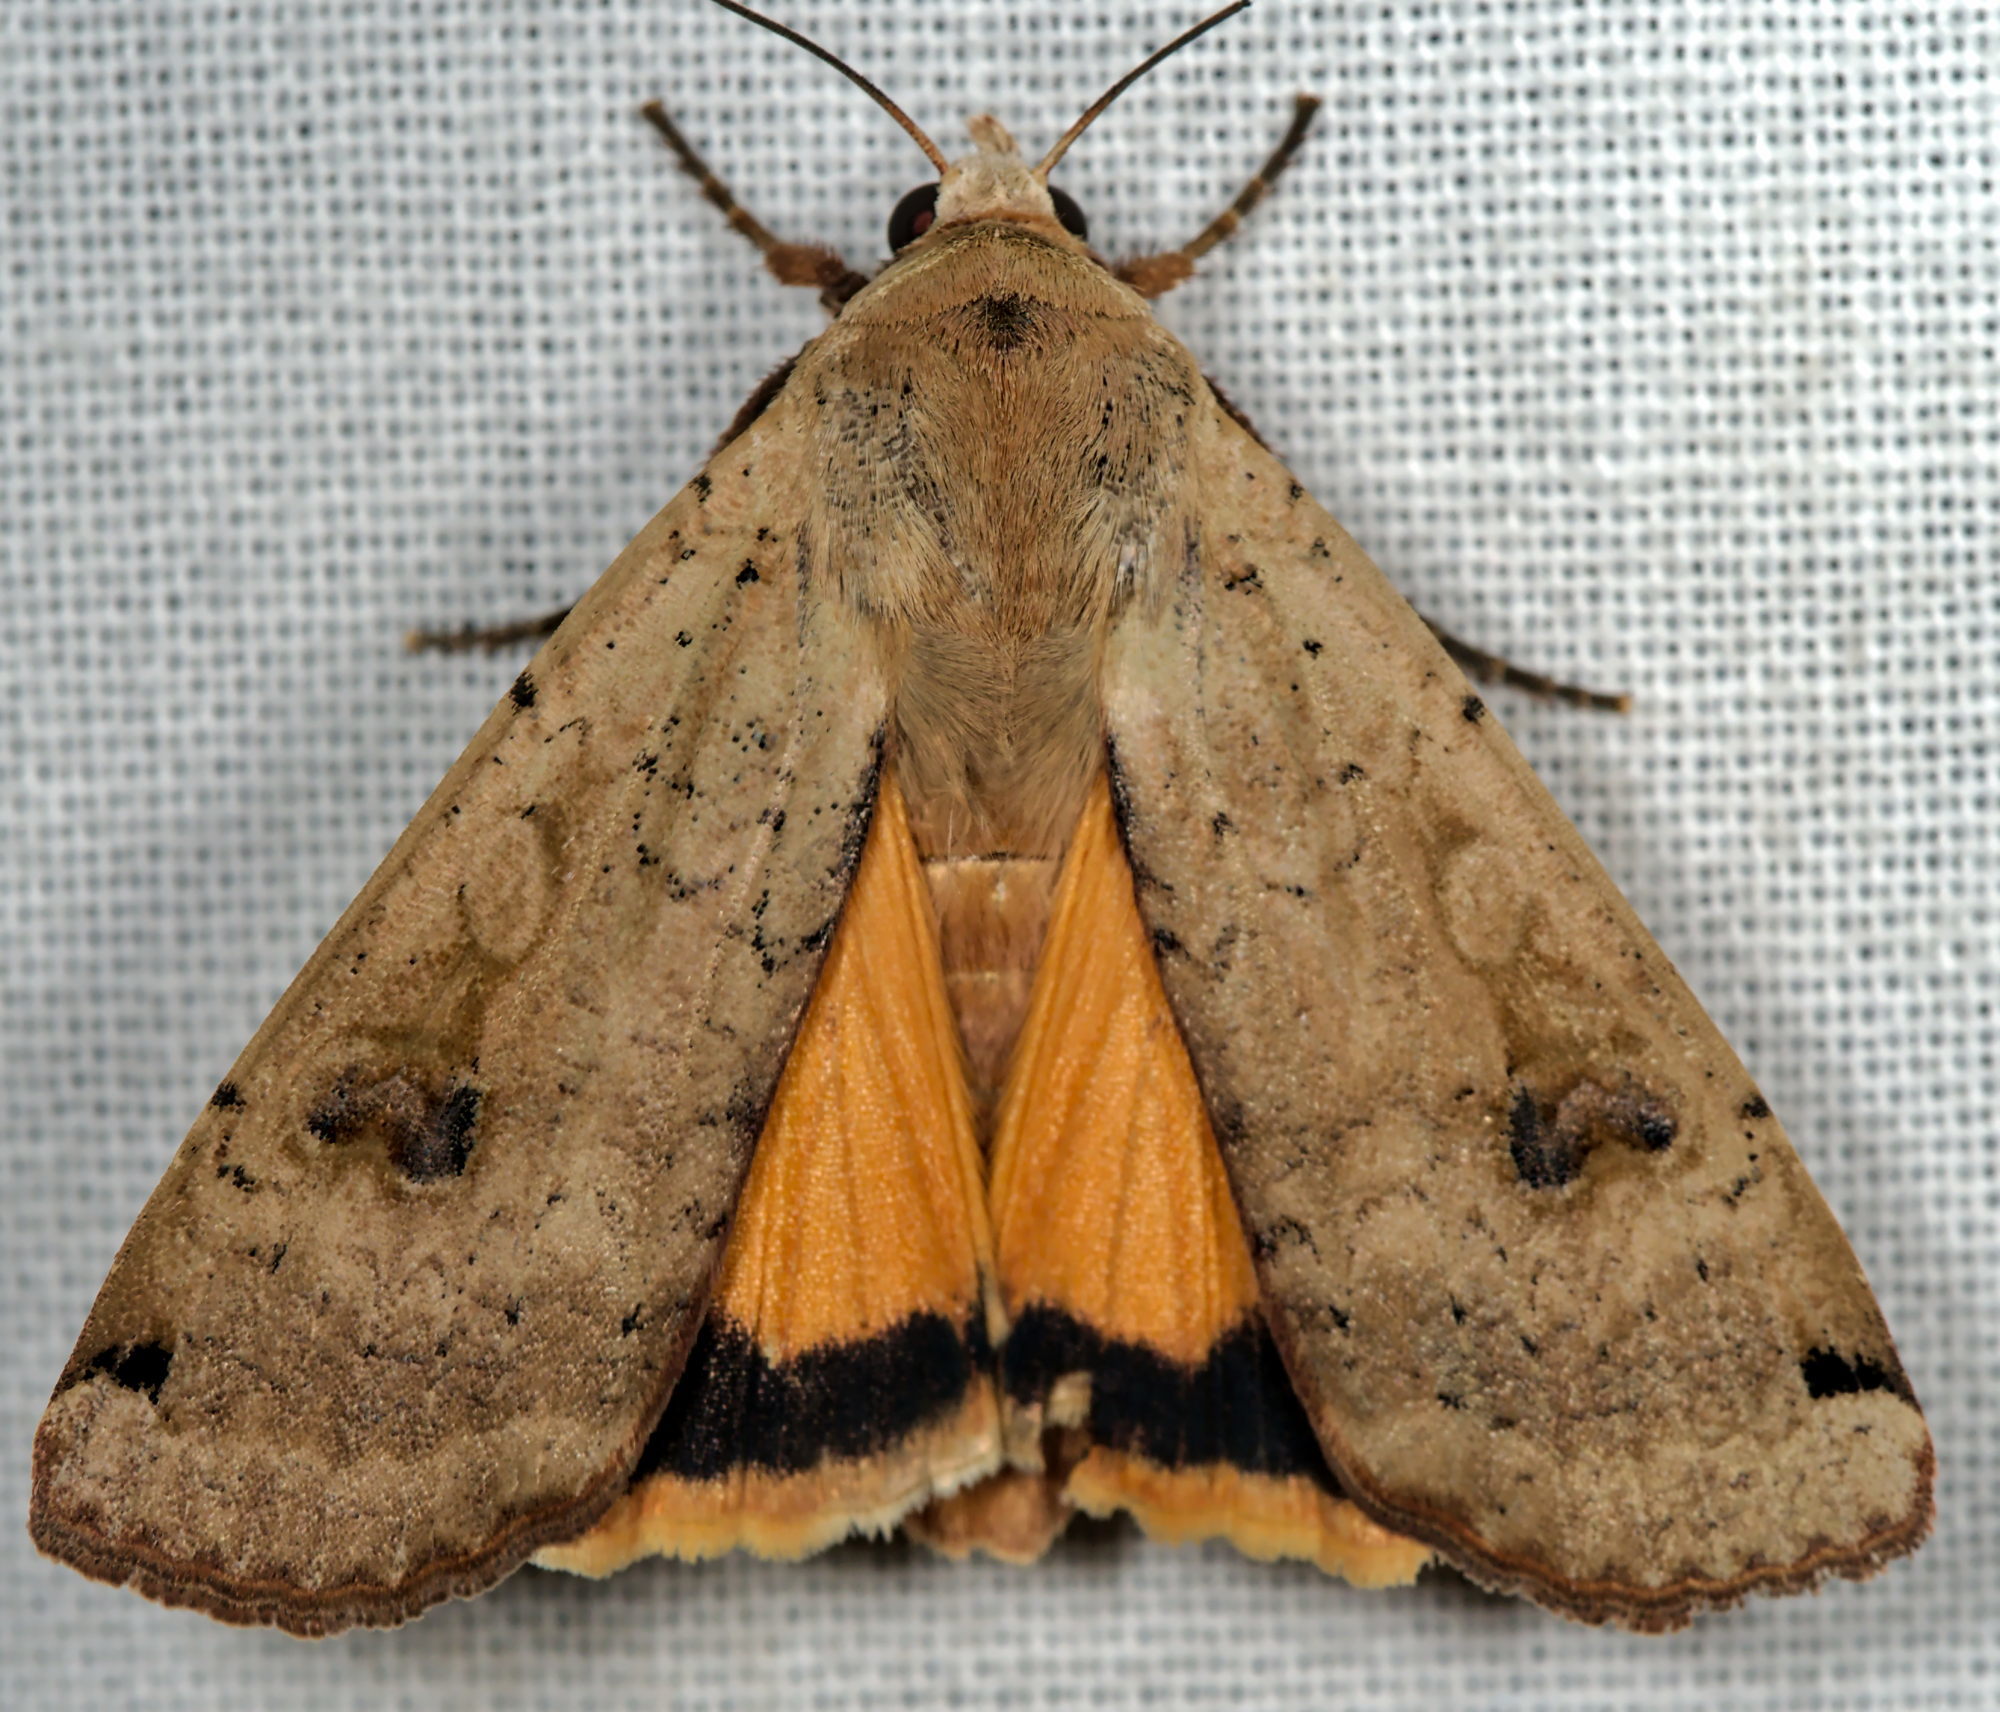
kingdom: Animalia
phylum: Arthropoda
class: Insecta
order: Lepidoptera
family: Noctuidae
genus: Noctua
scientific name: Noctua pronuba
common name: Large yellow underwing
